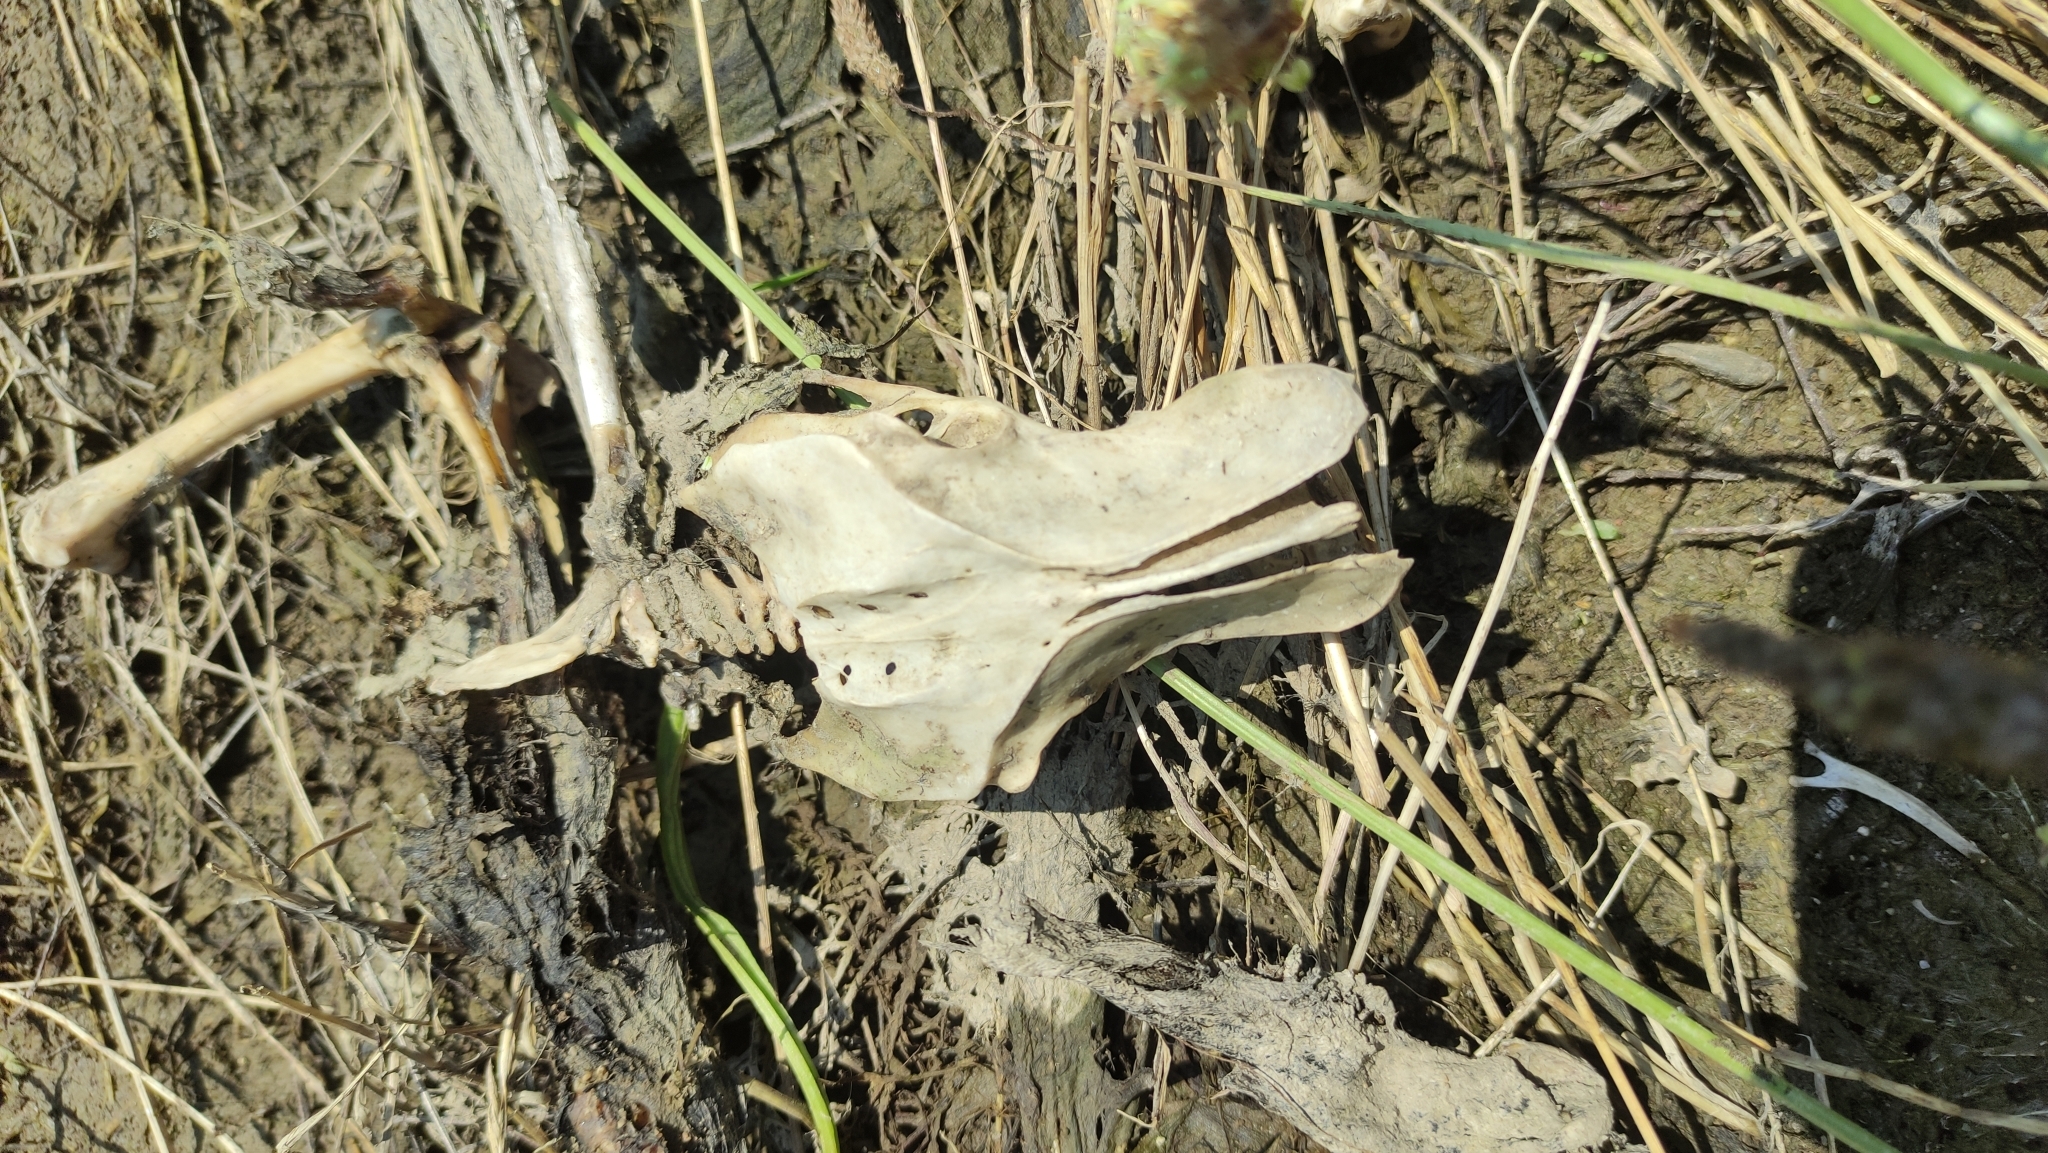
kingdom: Animalia
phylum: Chordata
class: Aves
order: Passeriformes
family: Corvidae
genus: Corvus
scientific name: Corvus corax
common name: Common raven
